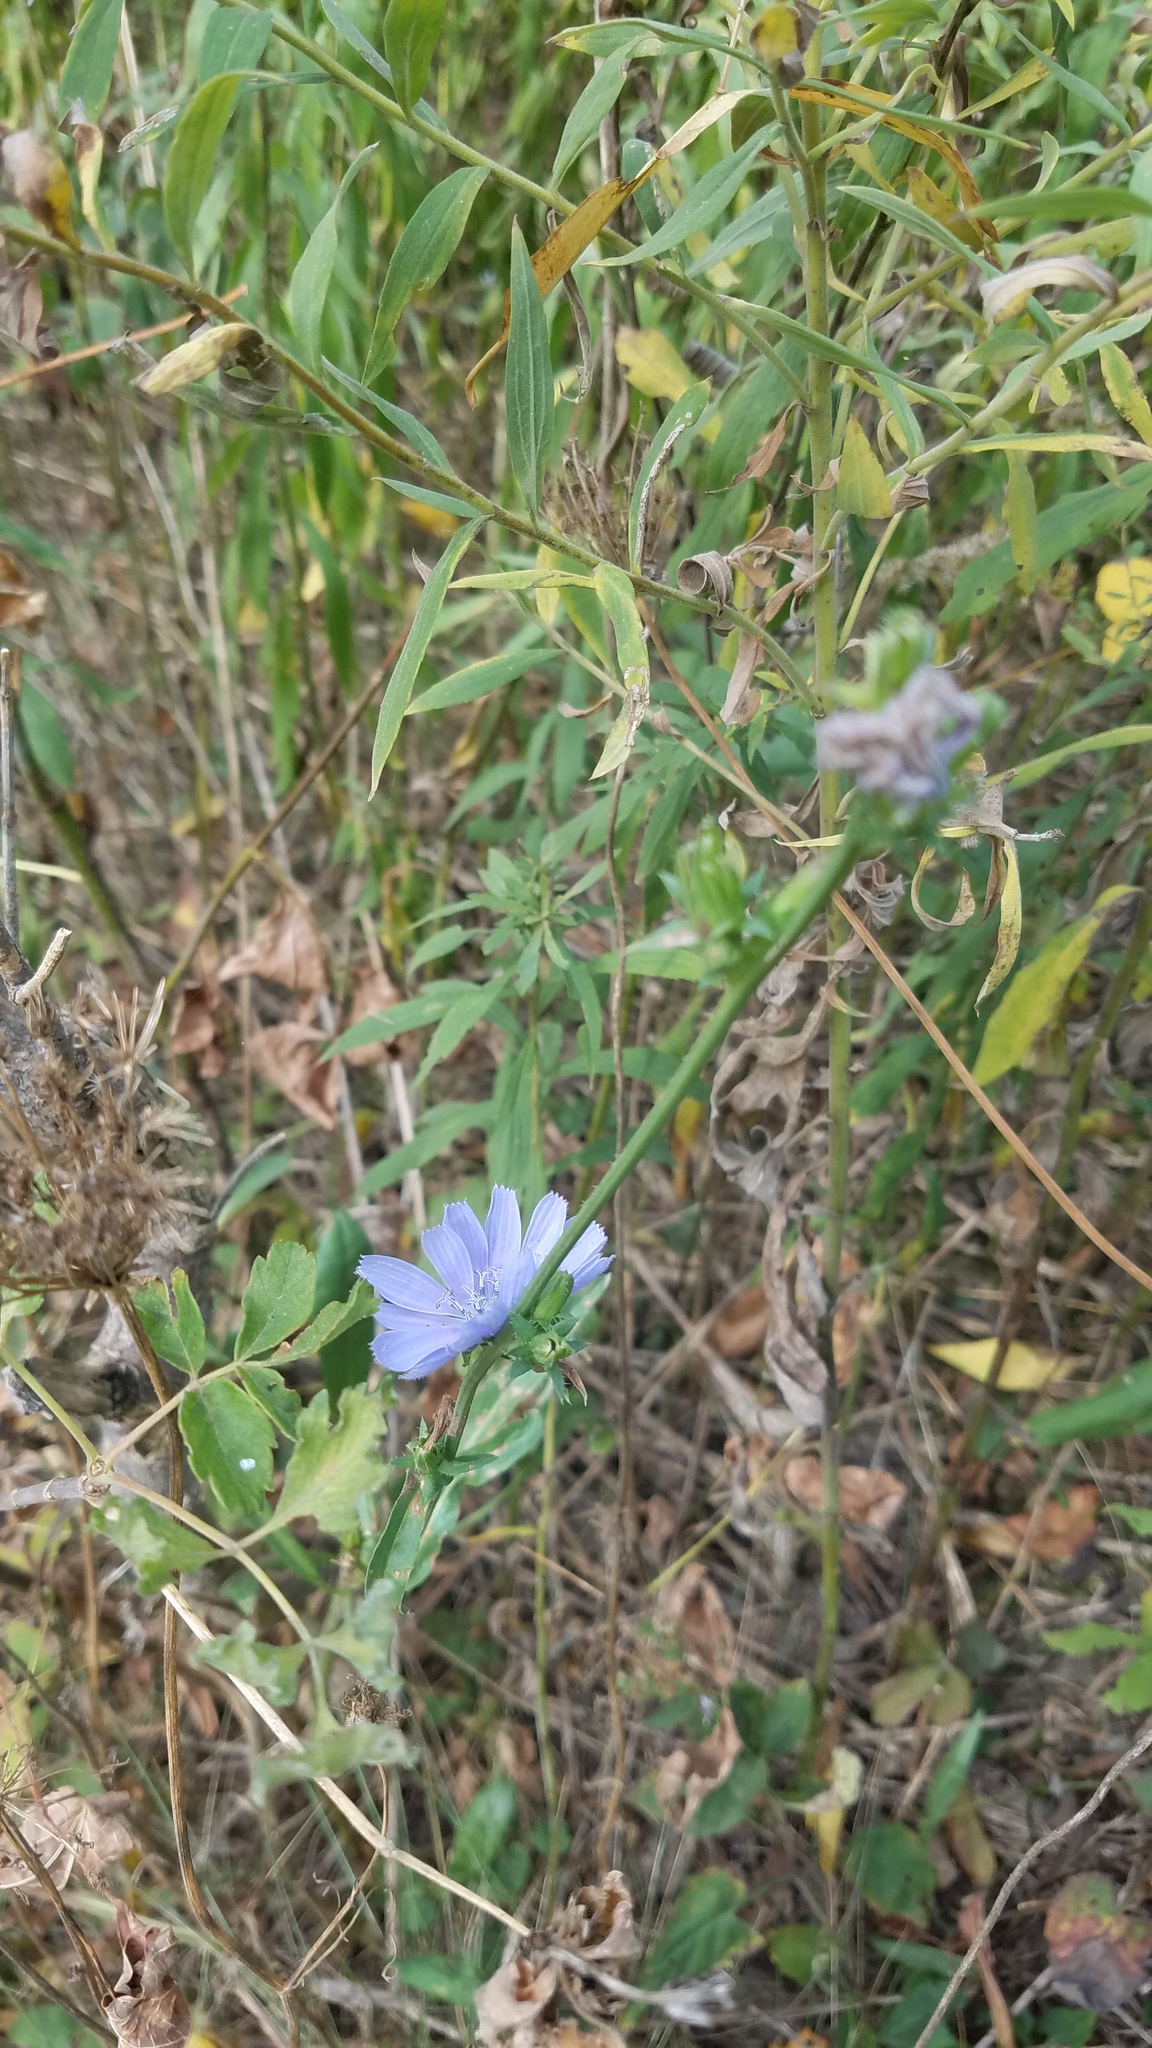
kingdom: Plantae
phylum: Tracheophyta
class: Magnoliopsida
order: Asterales
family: Asteraceae
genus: Cichorium
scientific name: Cichorium intybus
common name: Chicory
